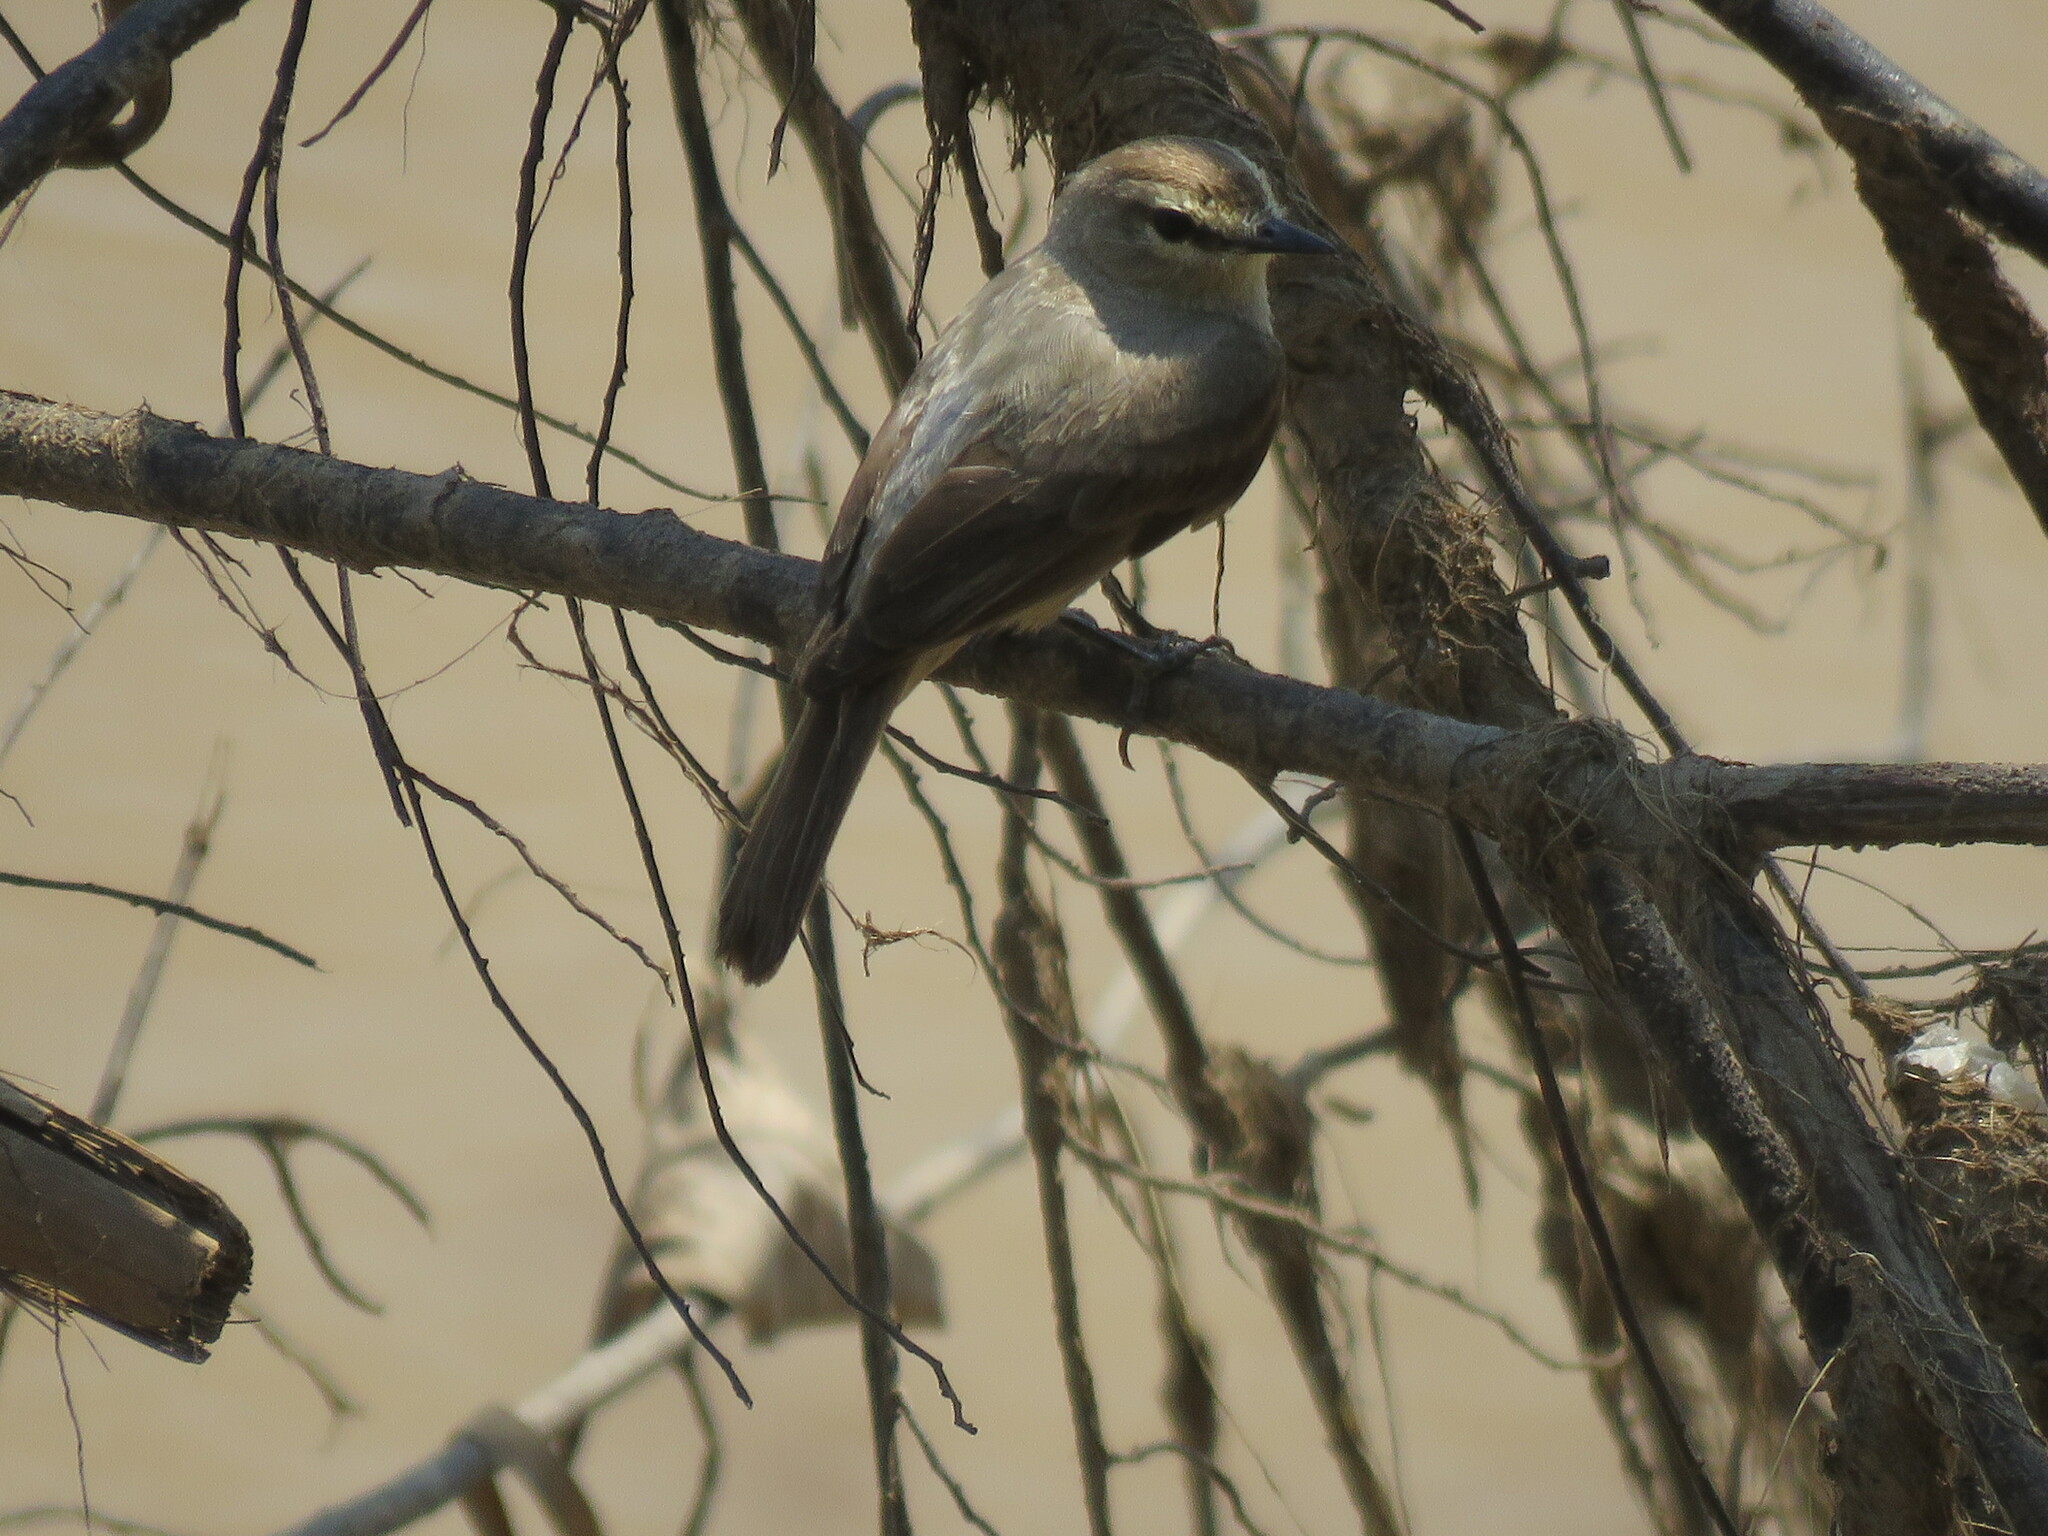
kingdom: Animalia
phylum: Chordata
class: Aves
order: Passeriformes
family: Tyrannidae
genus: Ochthornis
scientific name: Ochthornis littoralis
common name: Drab water tyrant
